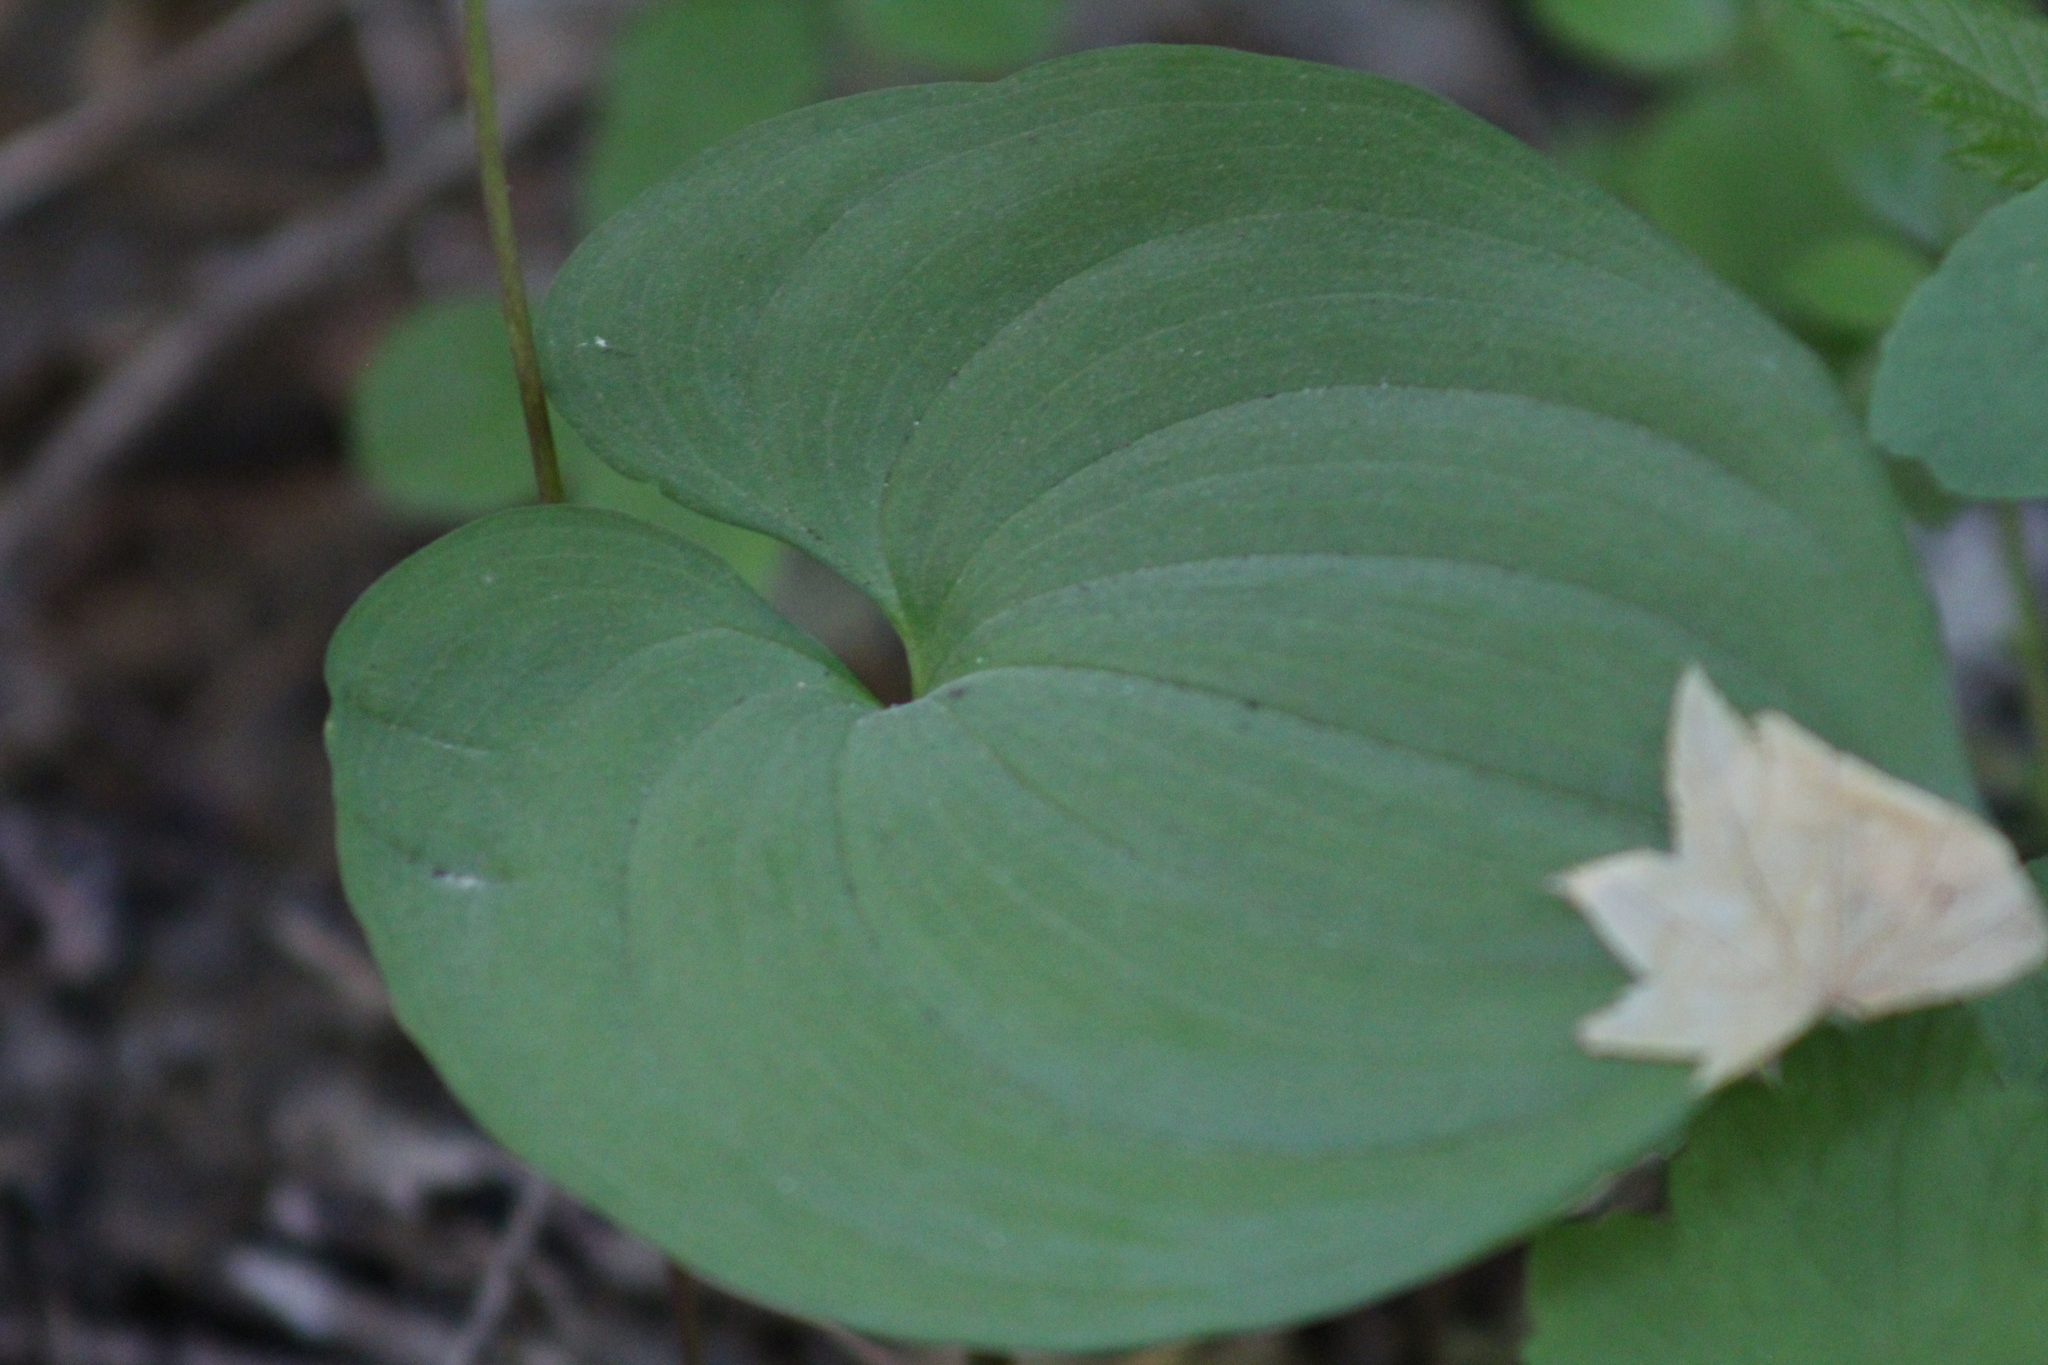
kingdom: Plantae
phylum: Tracheophyta
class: Liliopsida
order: Asparagales
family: Asparagaceae
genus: Maianthemum
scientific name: Maianthemum dilatatum
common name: False lily-of-the-valley
